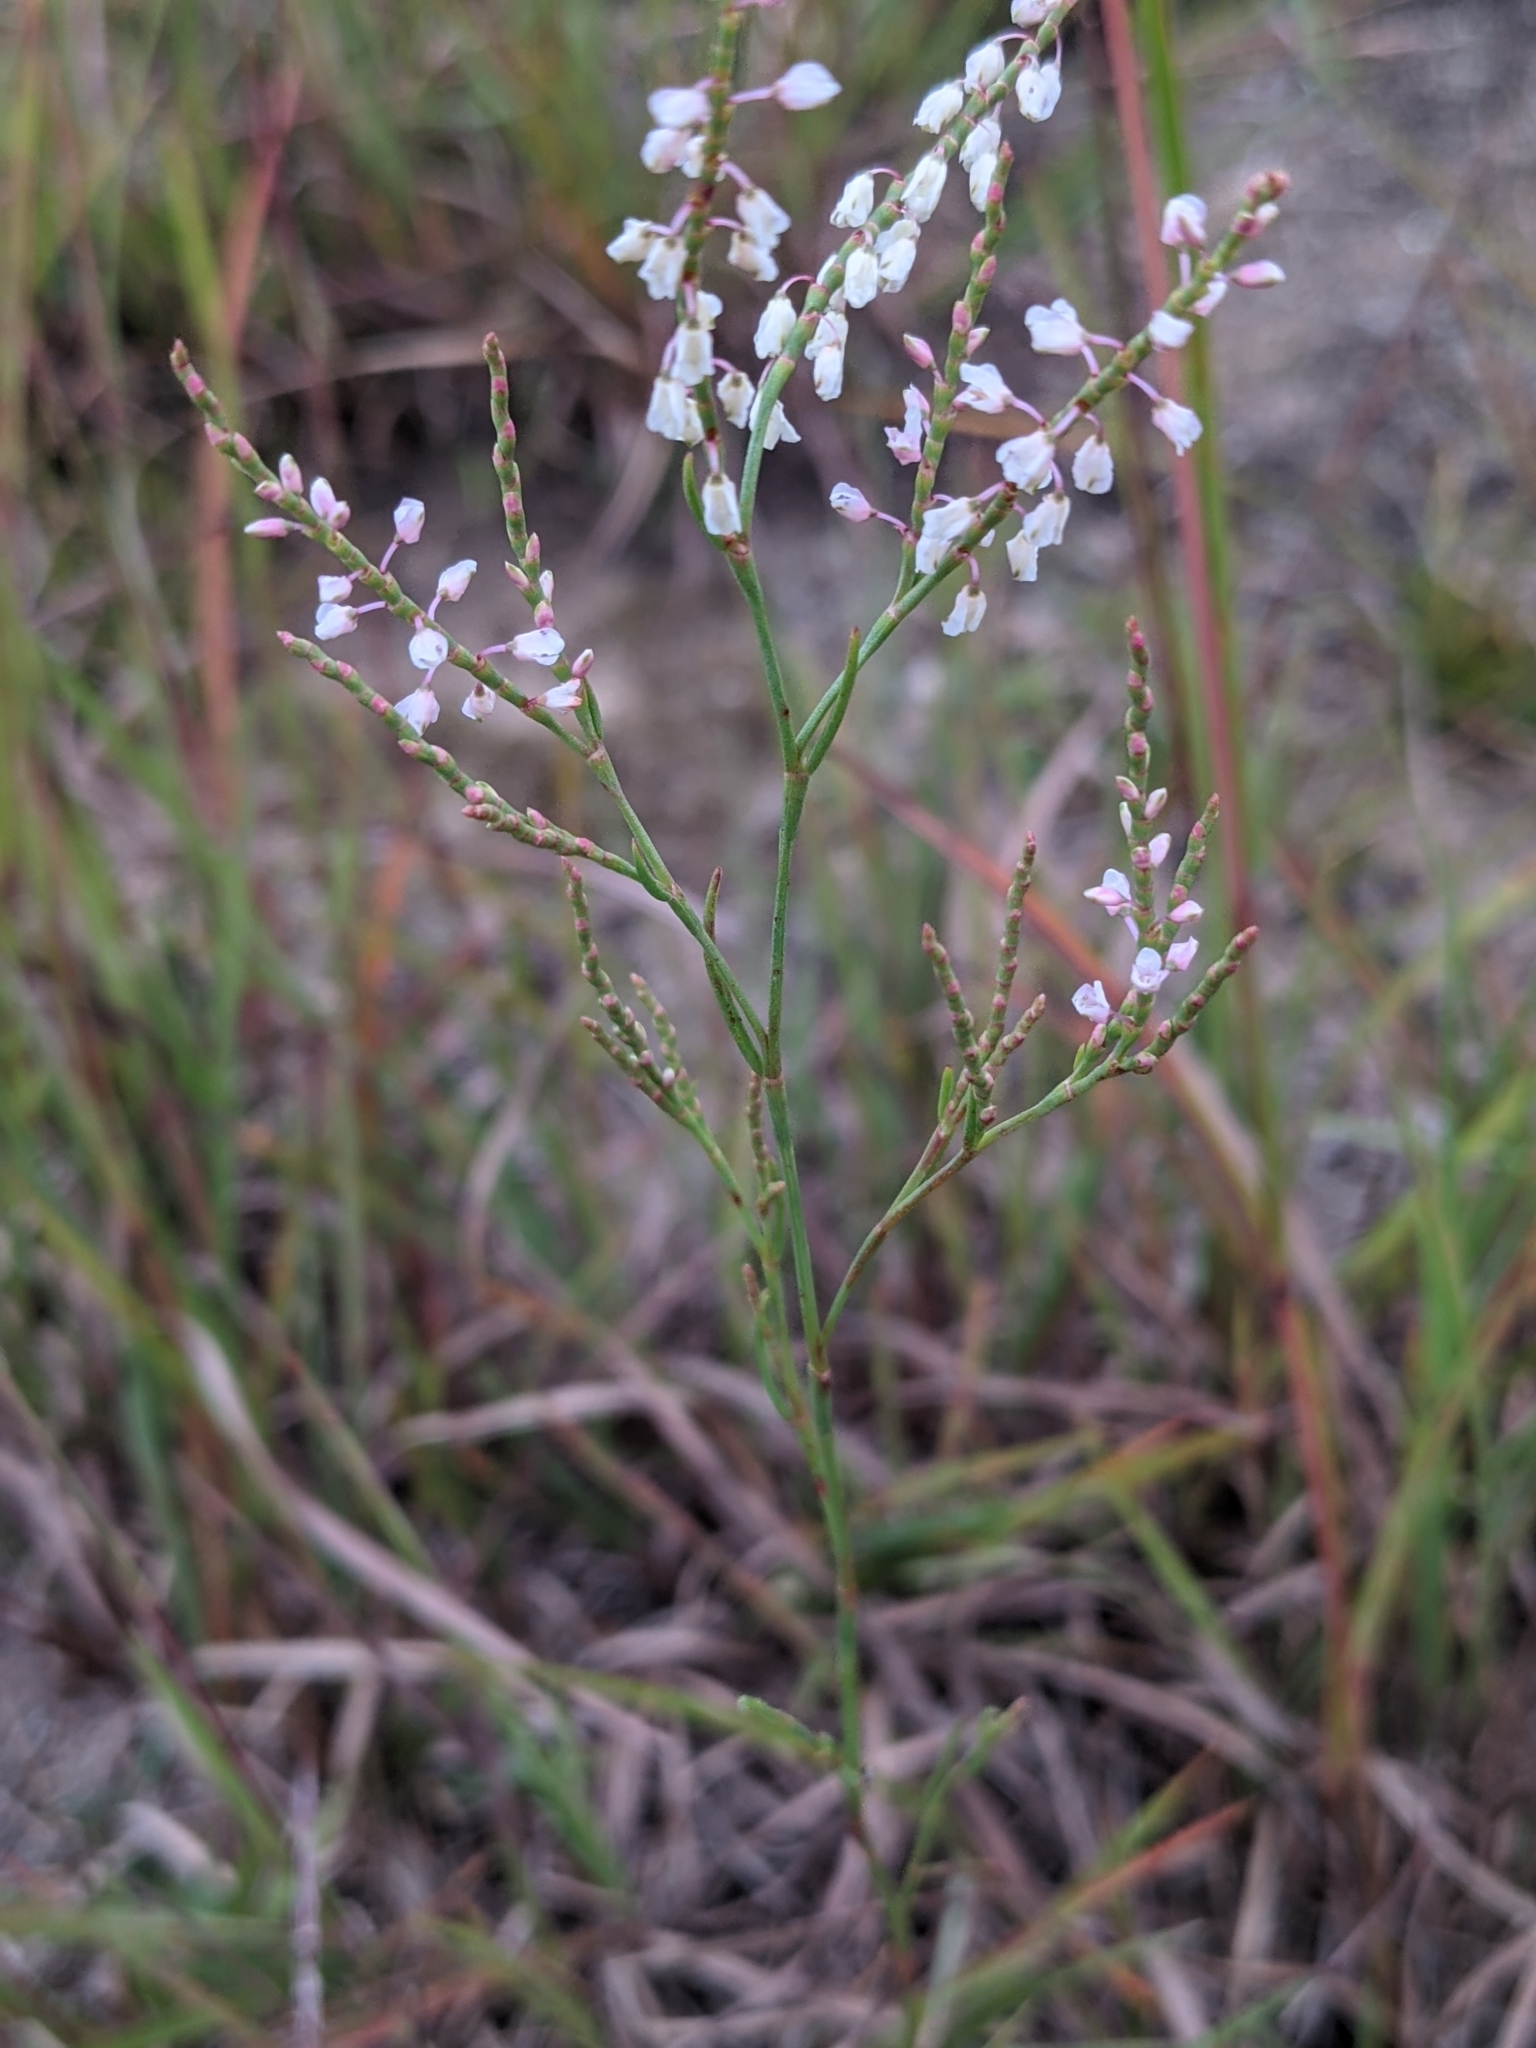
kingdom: Plantae
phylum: Tracheophyta
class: Magnoliopsida
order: Caryophyllales
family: Polygonaceae
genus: Polygonella
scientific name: Polygonella articulata
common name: Coastal jointweed
